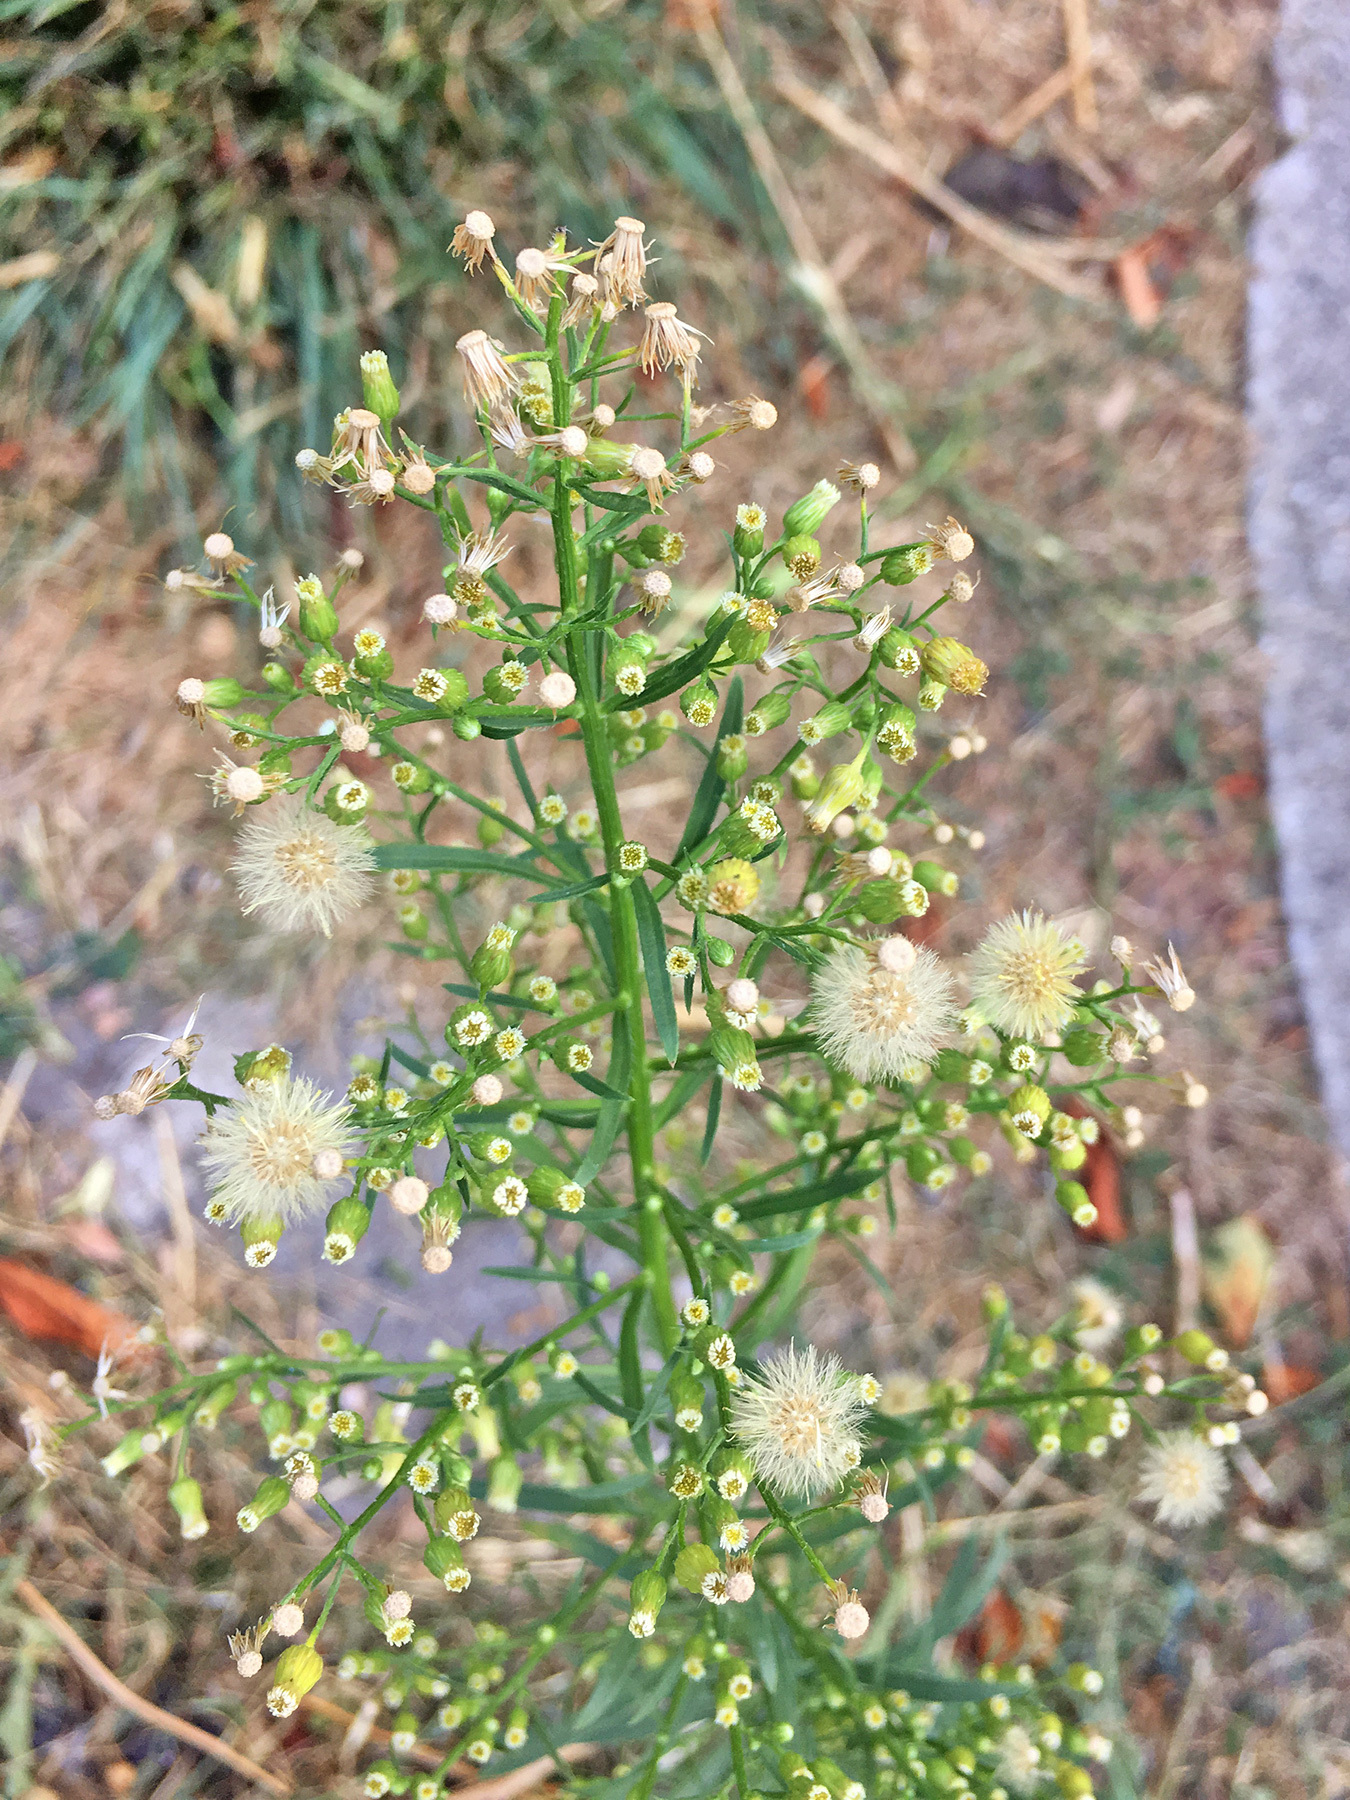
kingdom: Plantae
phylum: Tracheophyta
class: Magnoliopsida
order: Asterales
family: Asteraceae
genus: Erigeron
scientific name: Erigeron canadensis
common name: Canadian fleabane
